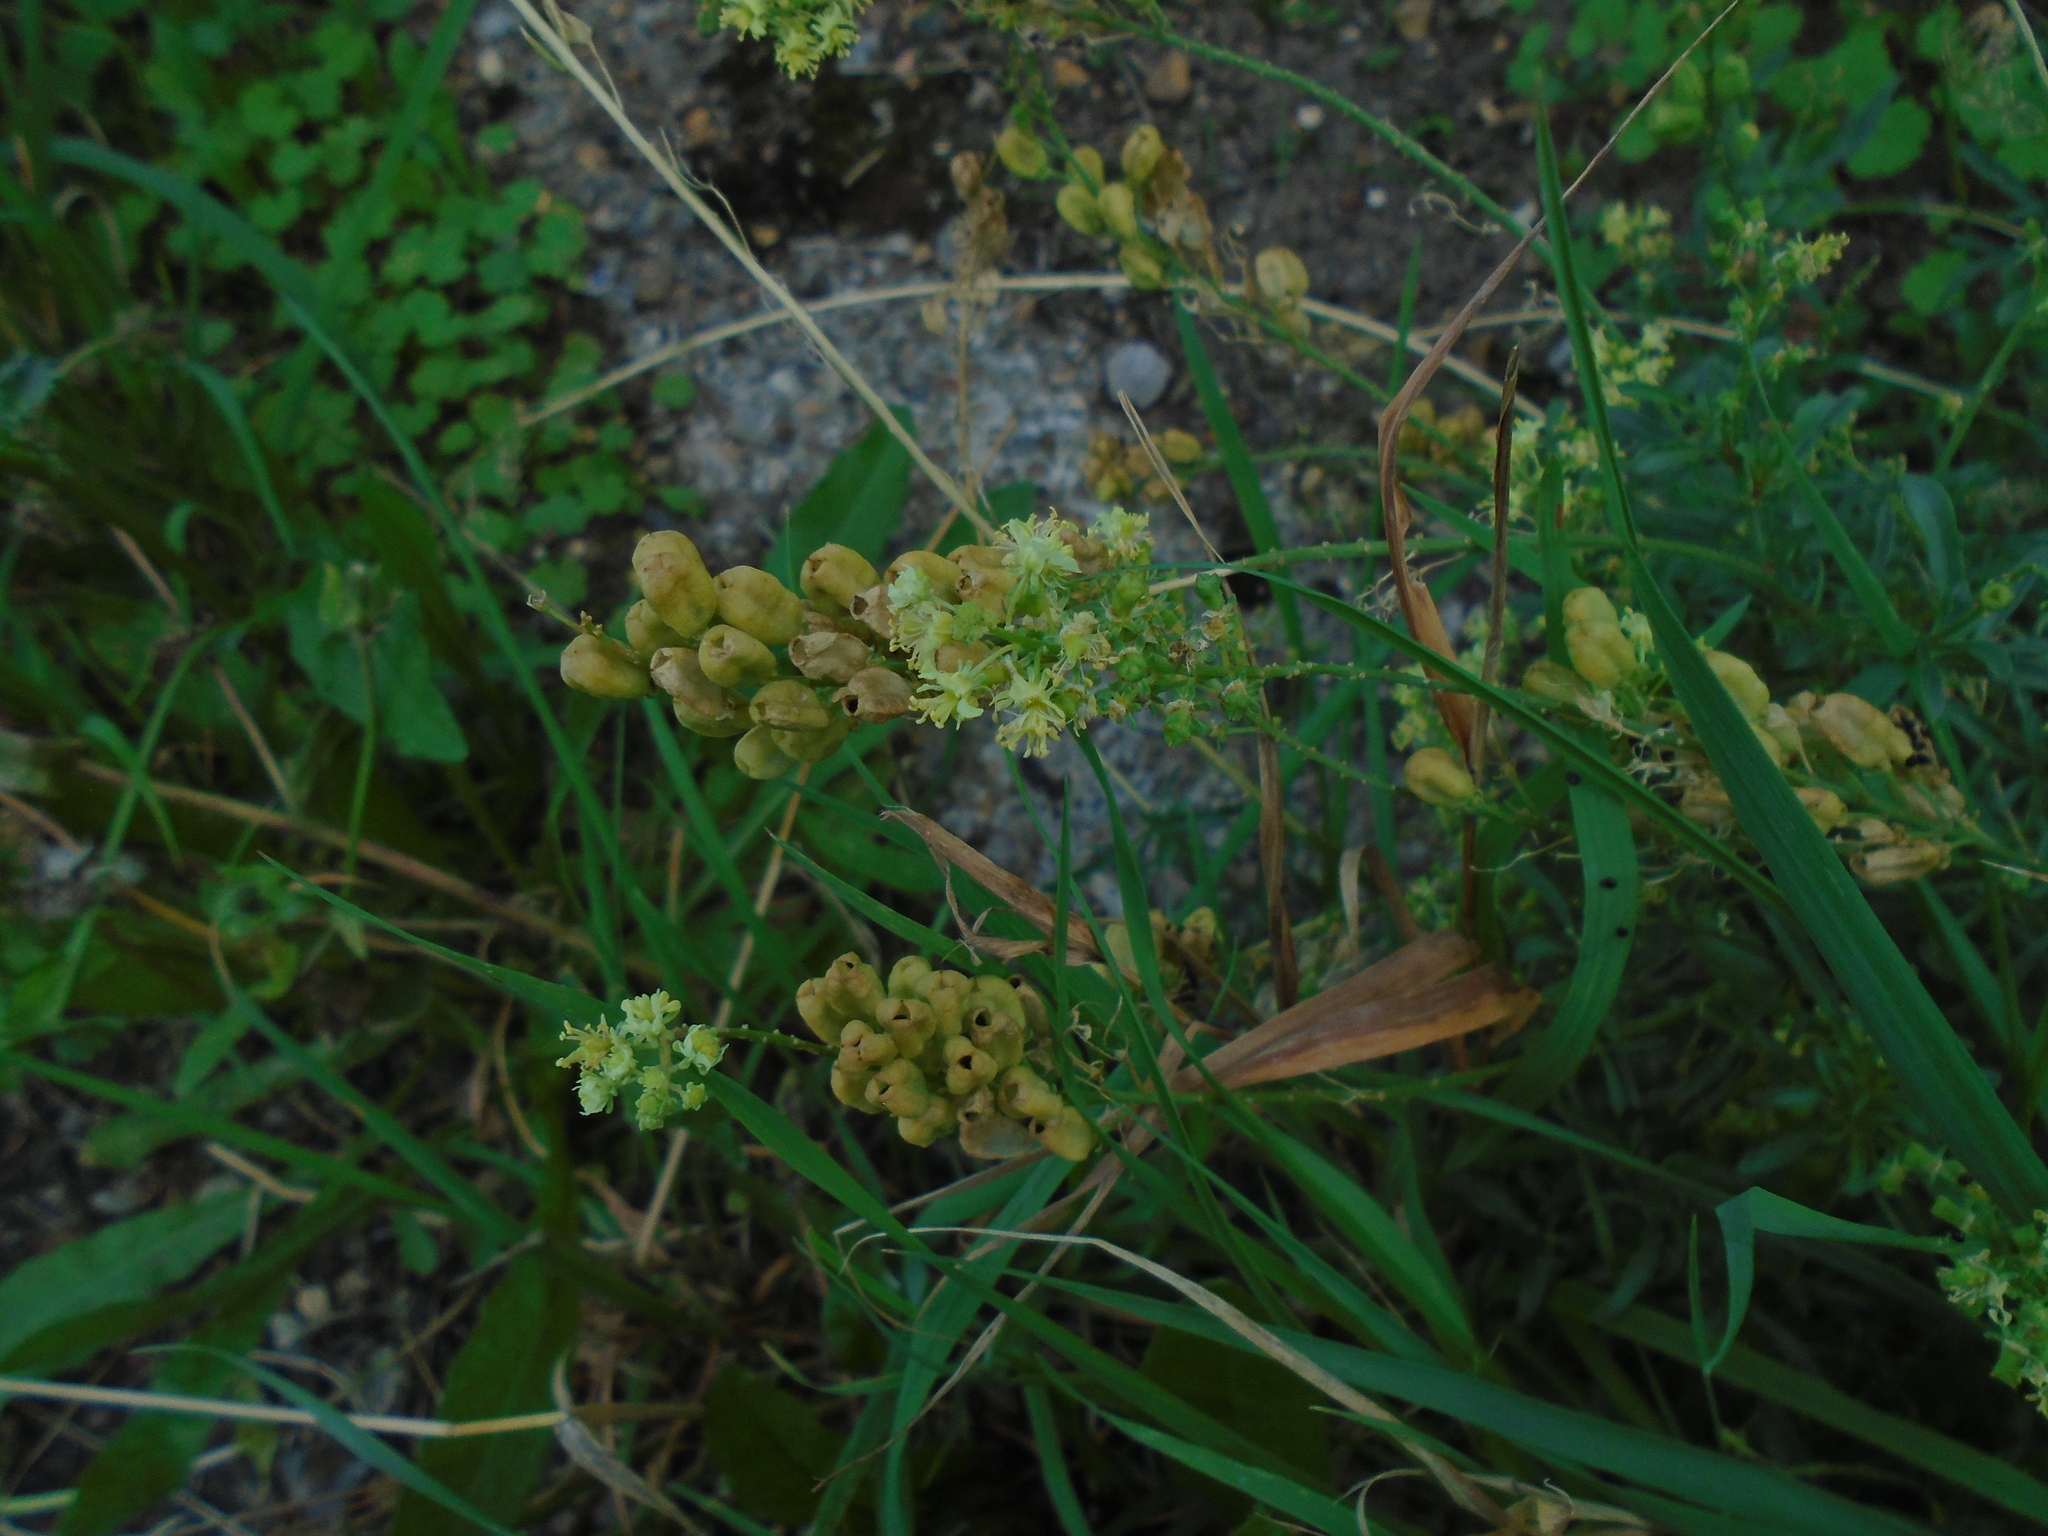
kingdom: Plantae
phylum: Tracheophyta
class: Magnoliopsida
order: Brassicales
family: Resedaceae
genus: Reseda
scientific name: Reseda lutea
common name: Wild mignonette
